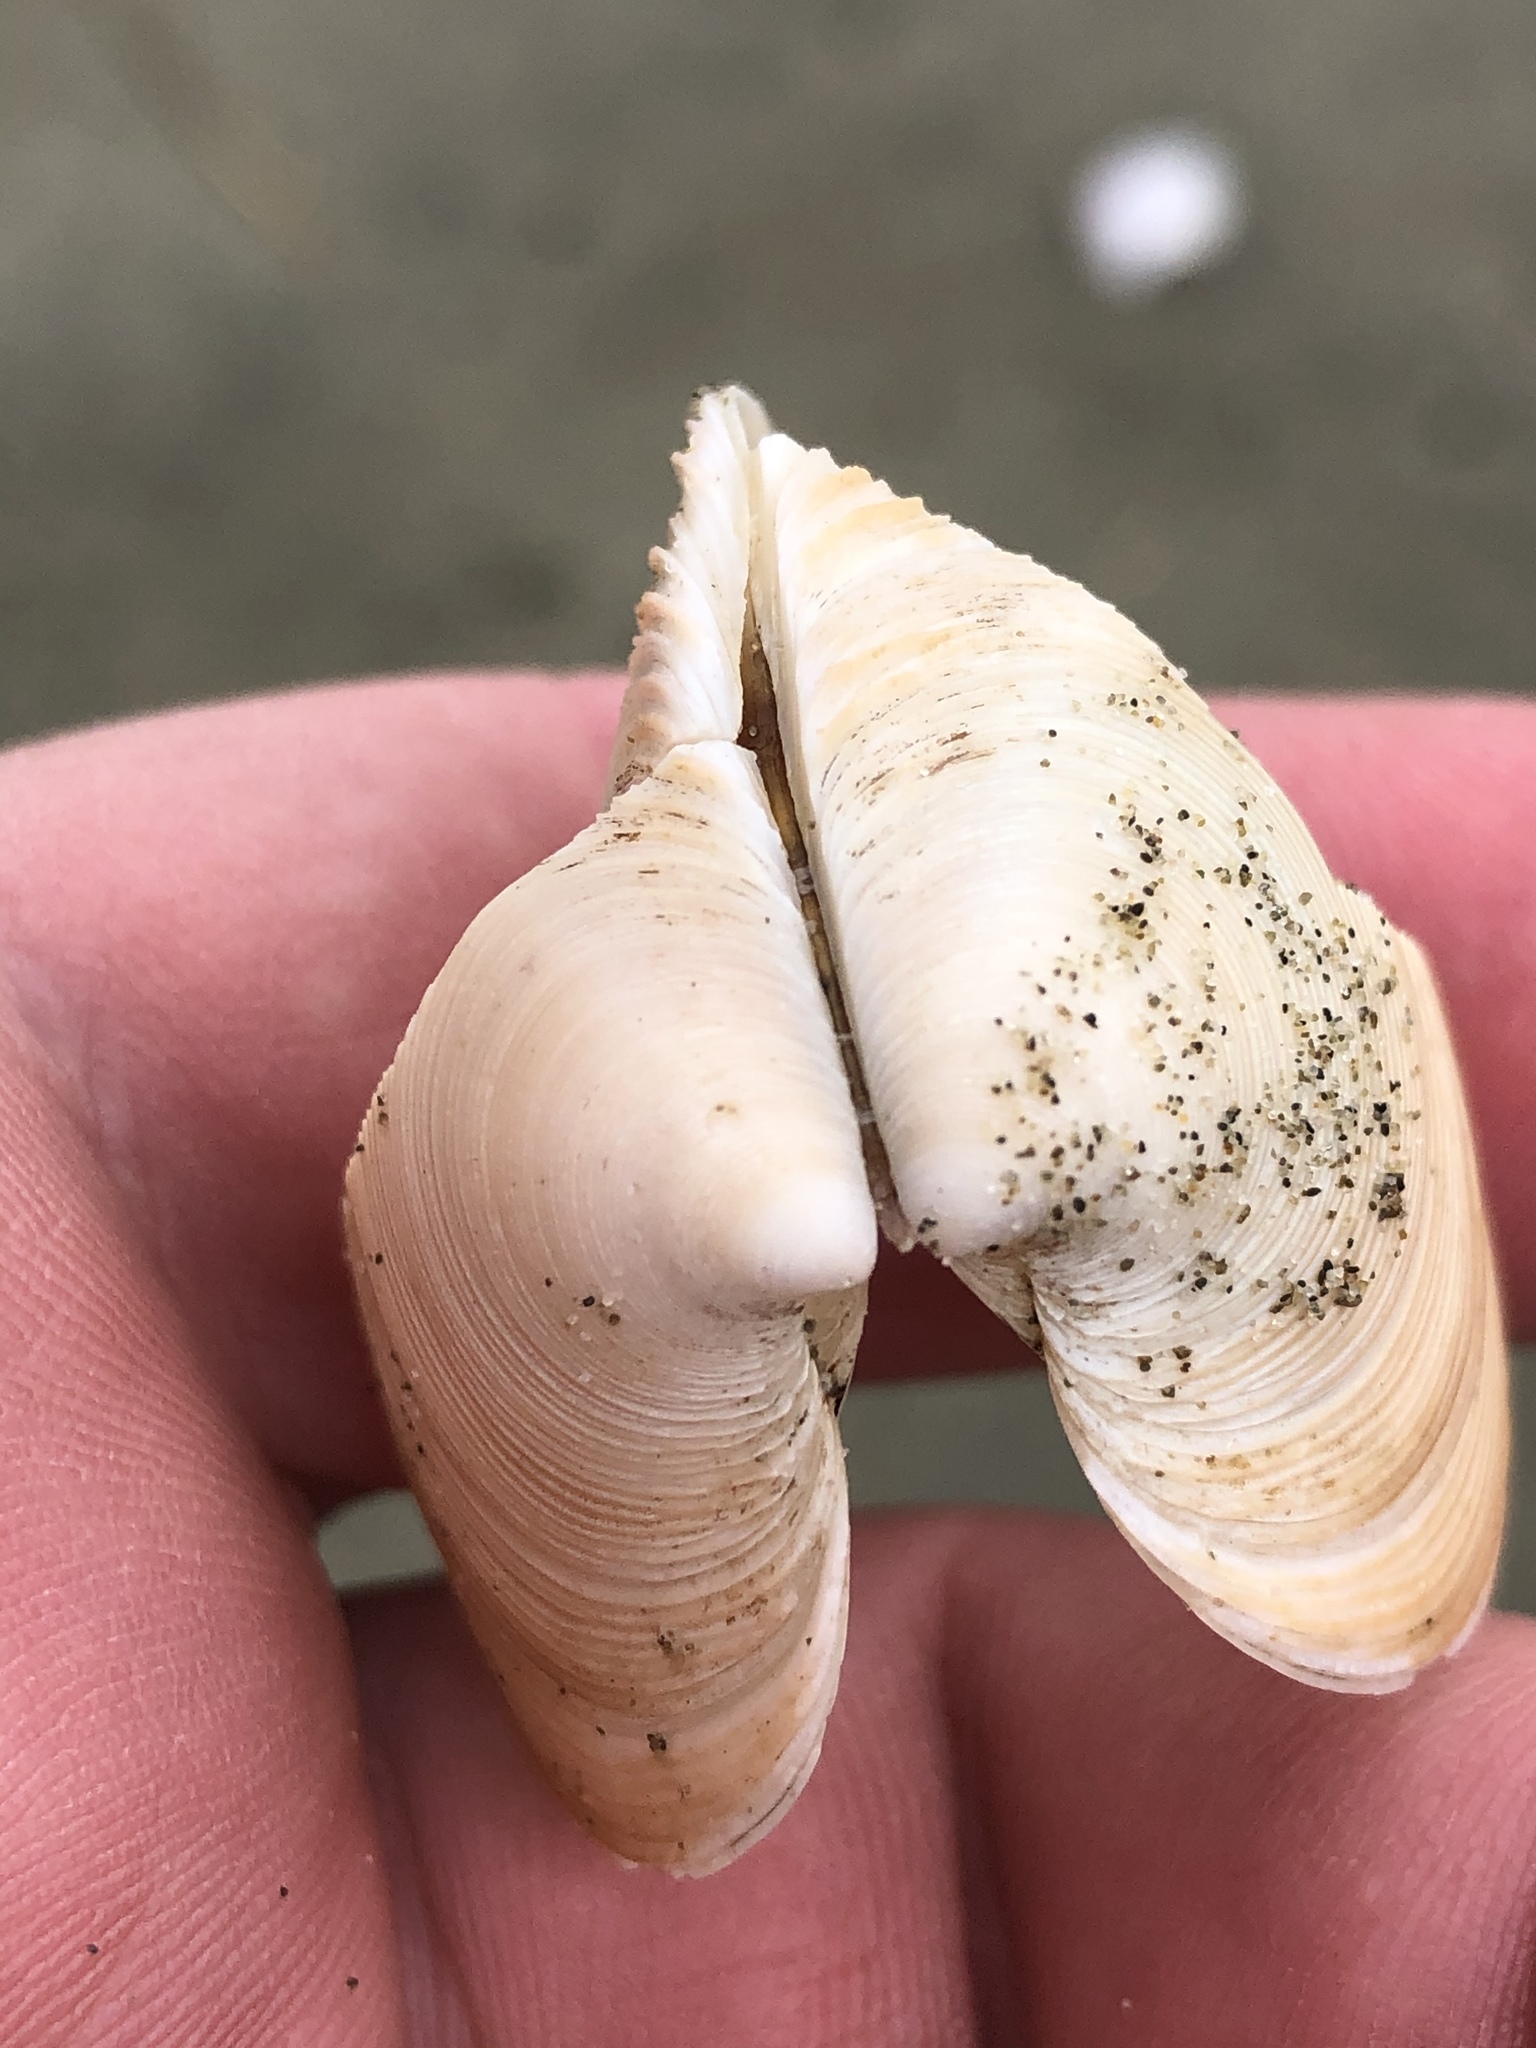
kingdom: Animalia
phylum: Mollusca
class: Bivalvia
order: Venerida
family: Veneridae
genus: Dosinia
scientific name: Dosinia anus
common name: Old-woman dosinia
